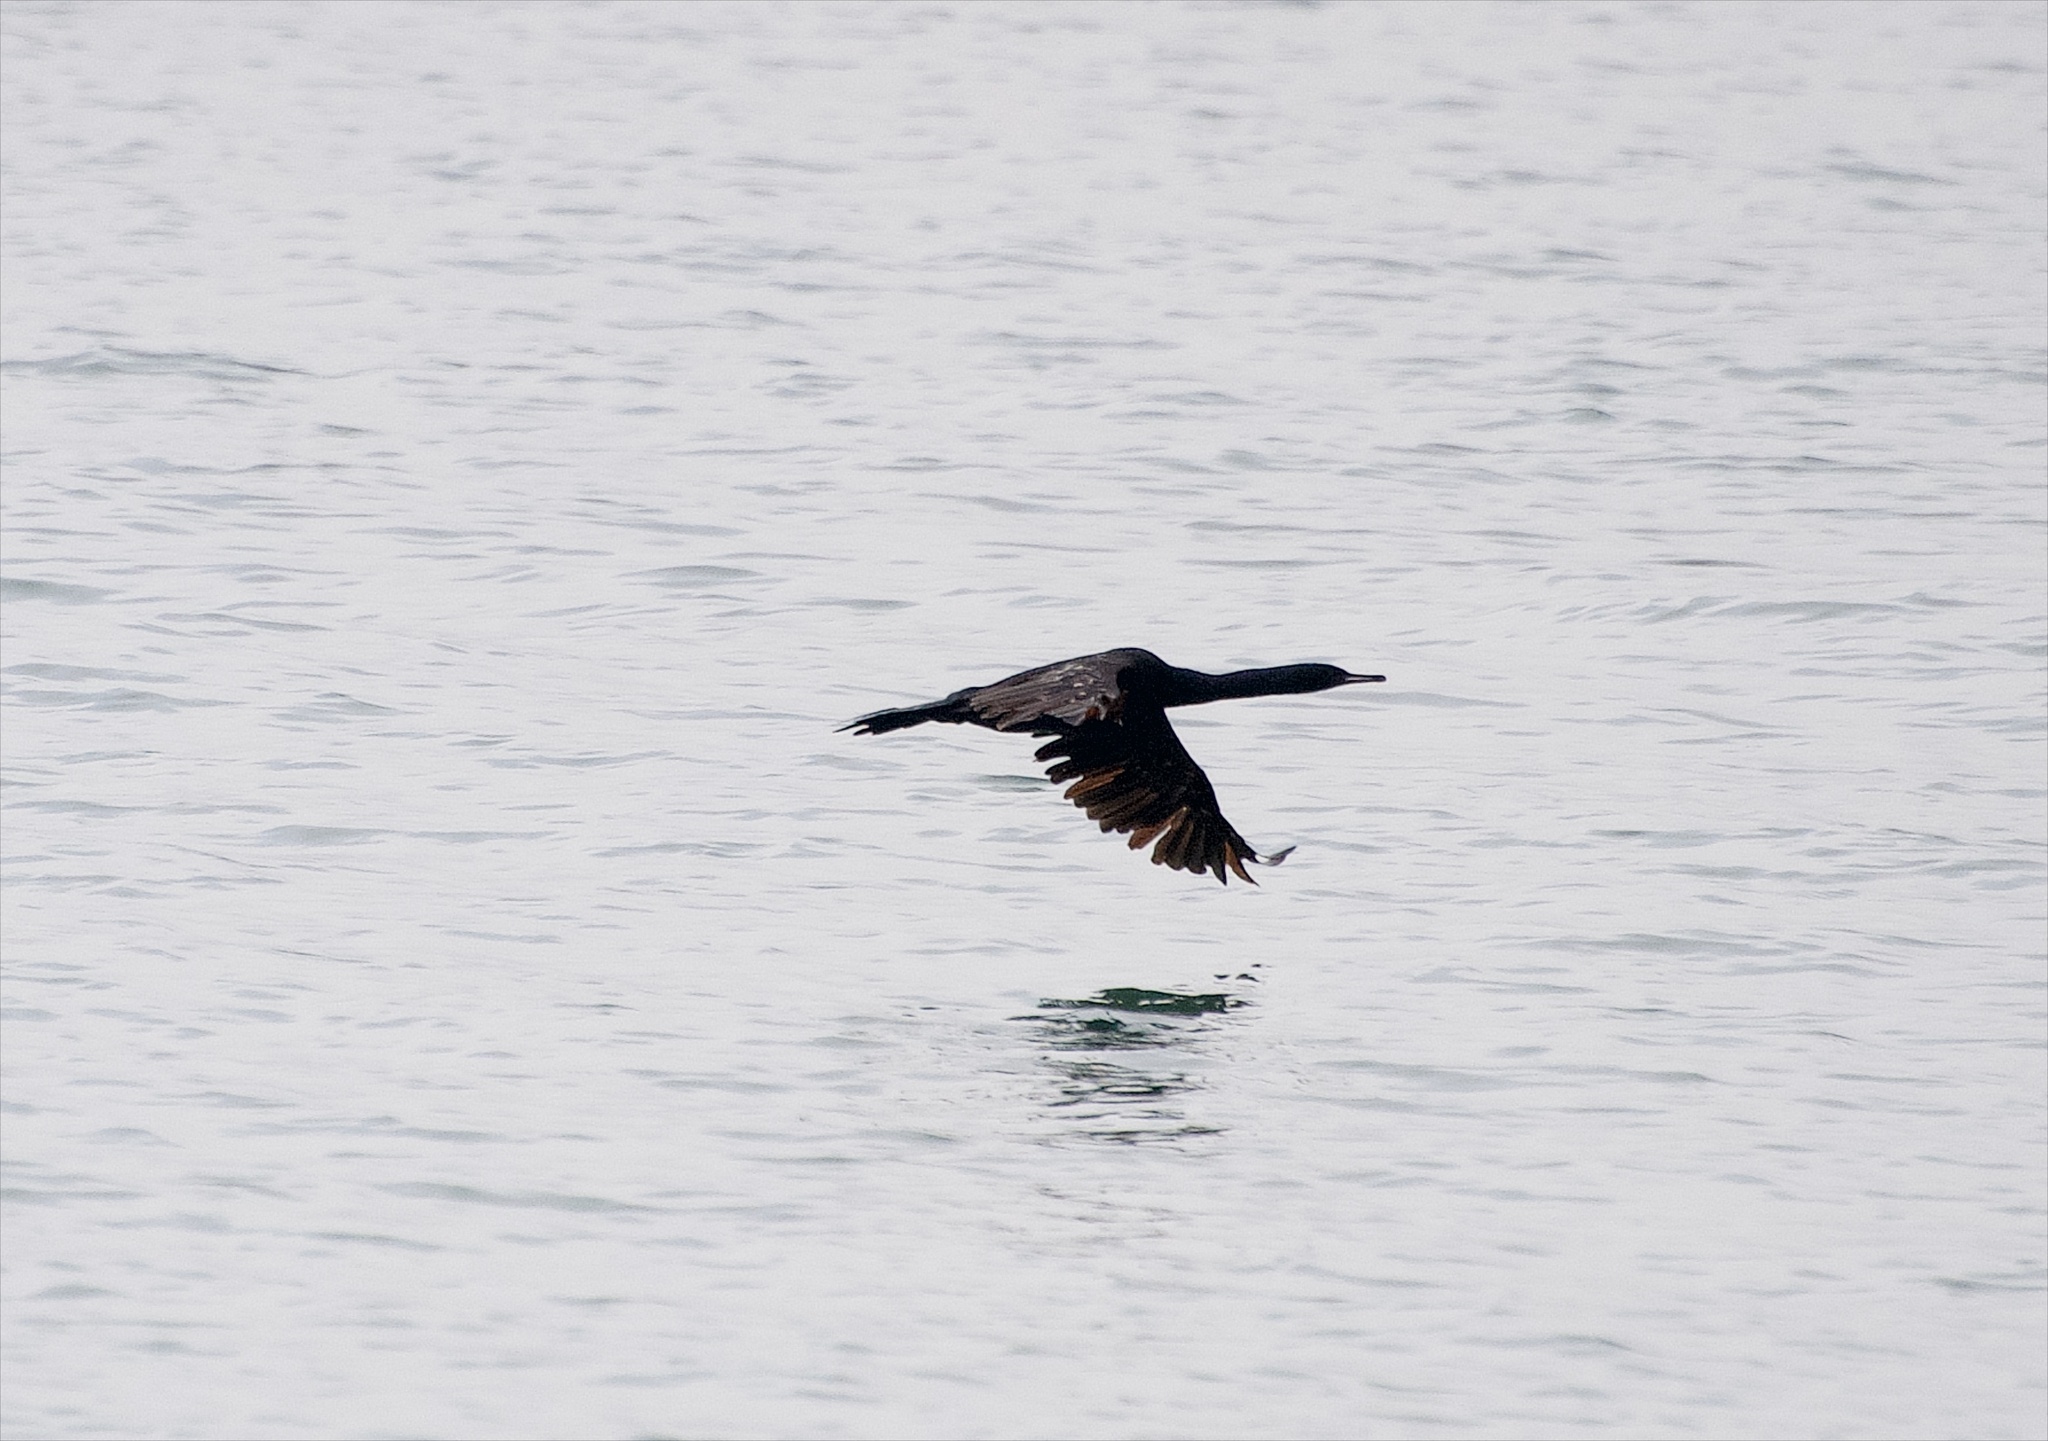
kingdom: Animalia
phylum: Chordata
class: Aves
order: Suliformes
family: Phalacrocoracidae
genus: Phalacrocorax
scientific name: Phalacrocorax pelagicus
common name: Pelagic cormorant
